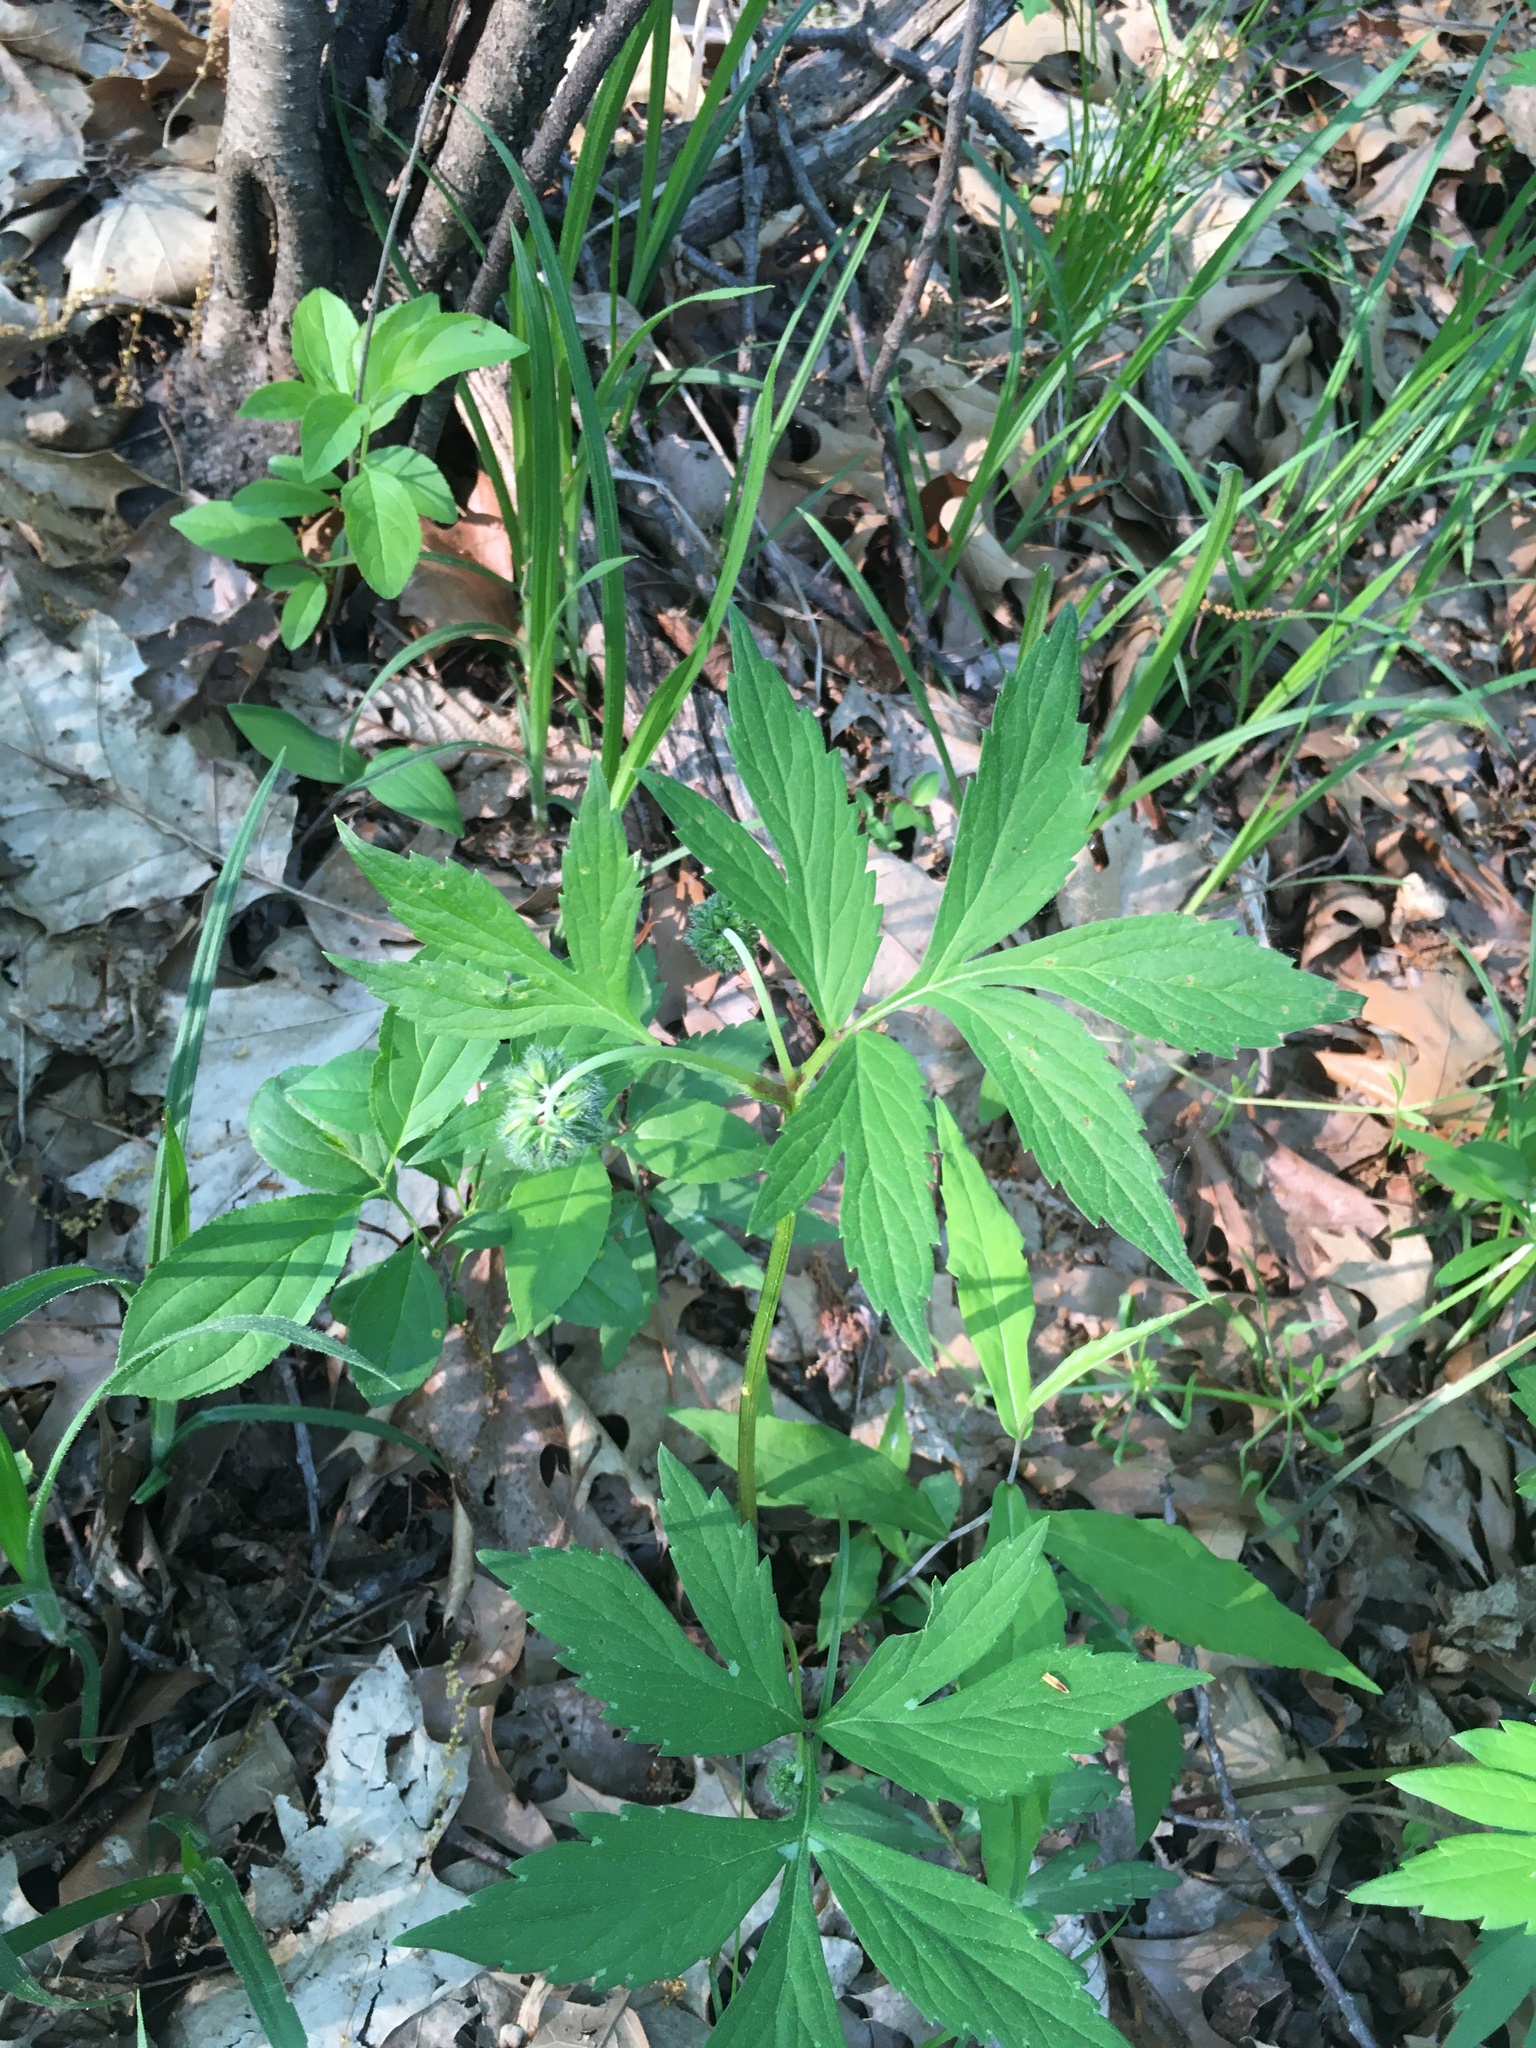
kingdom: Plantae
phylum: Tracheophyta
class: Magnoliopsida
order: Boraginales
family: Hydrophyllaceae
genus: Hydrophyllum
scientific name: Hydrophyllum virginianum
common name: Virginia waterleaf
